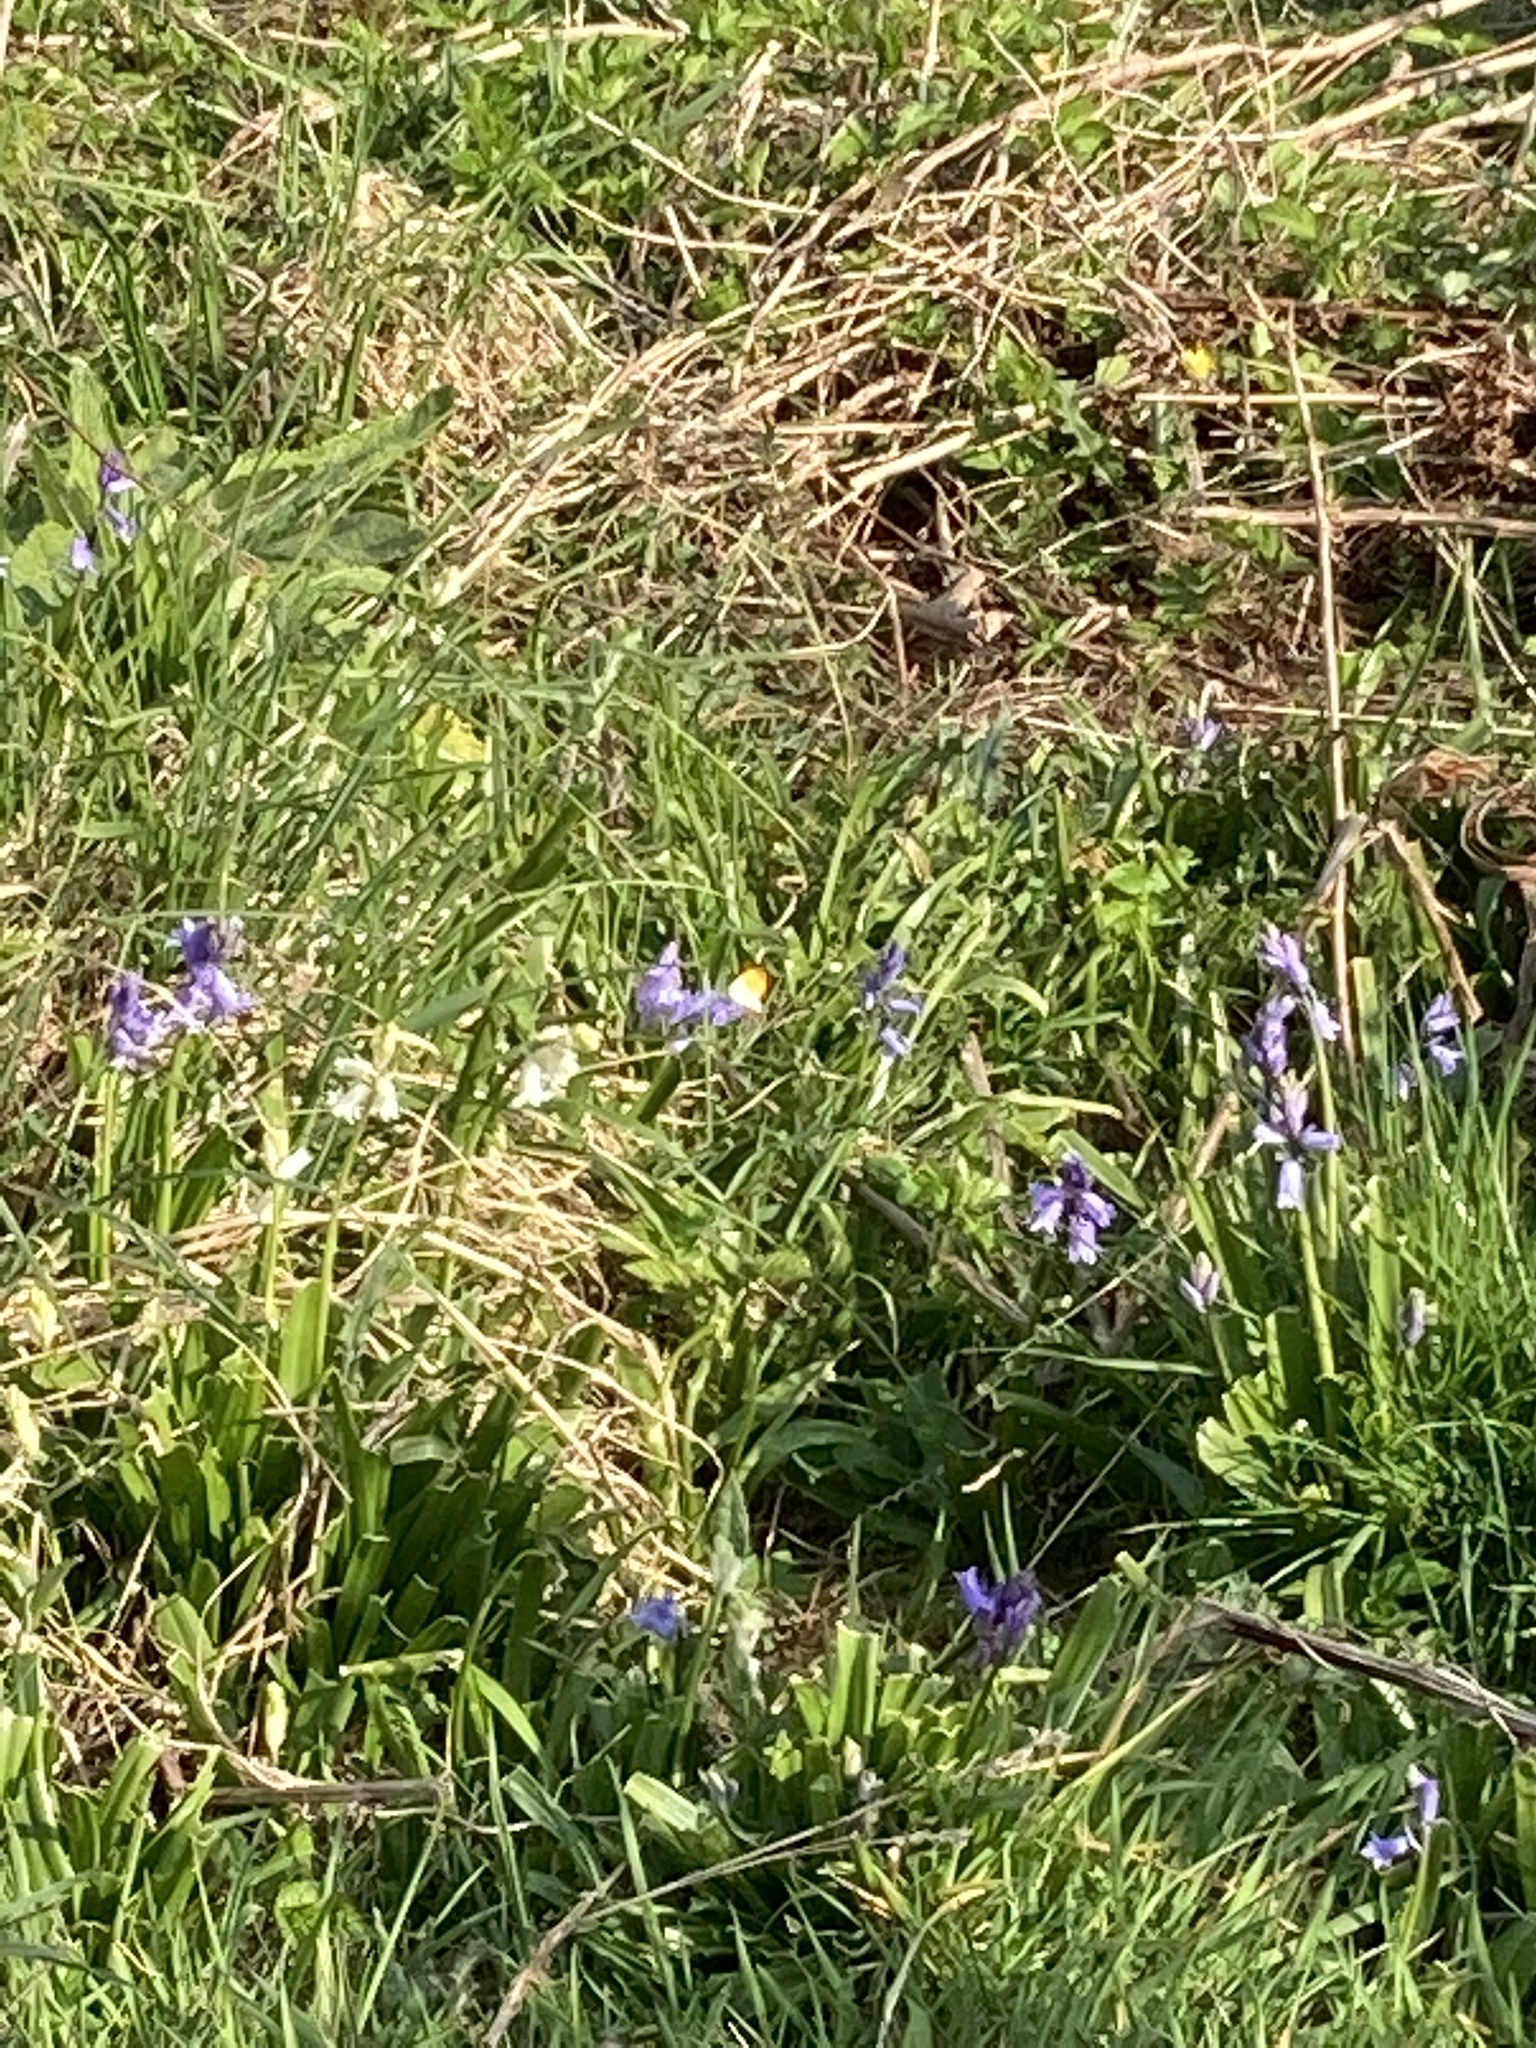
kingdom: Animalia
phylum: Arthropoda
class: Insecta
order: Lepidoptera
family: Pieridae
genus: Anthocharis
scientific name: Anthocharis cardamines
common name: Orange-tip
